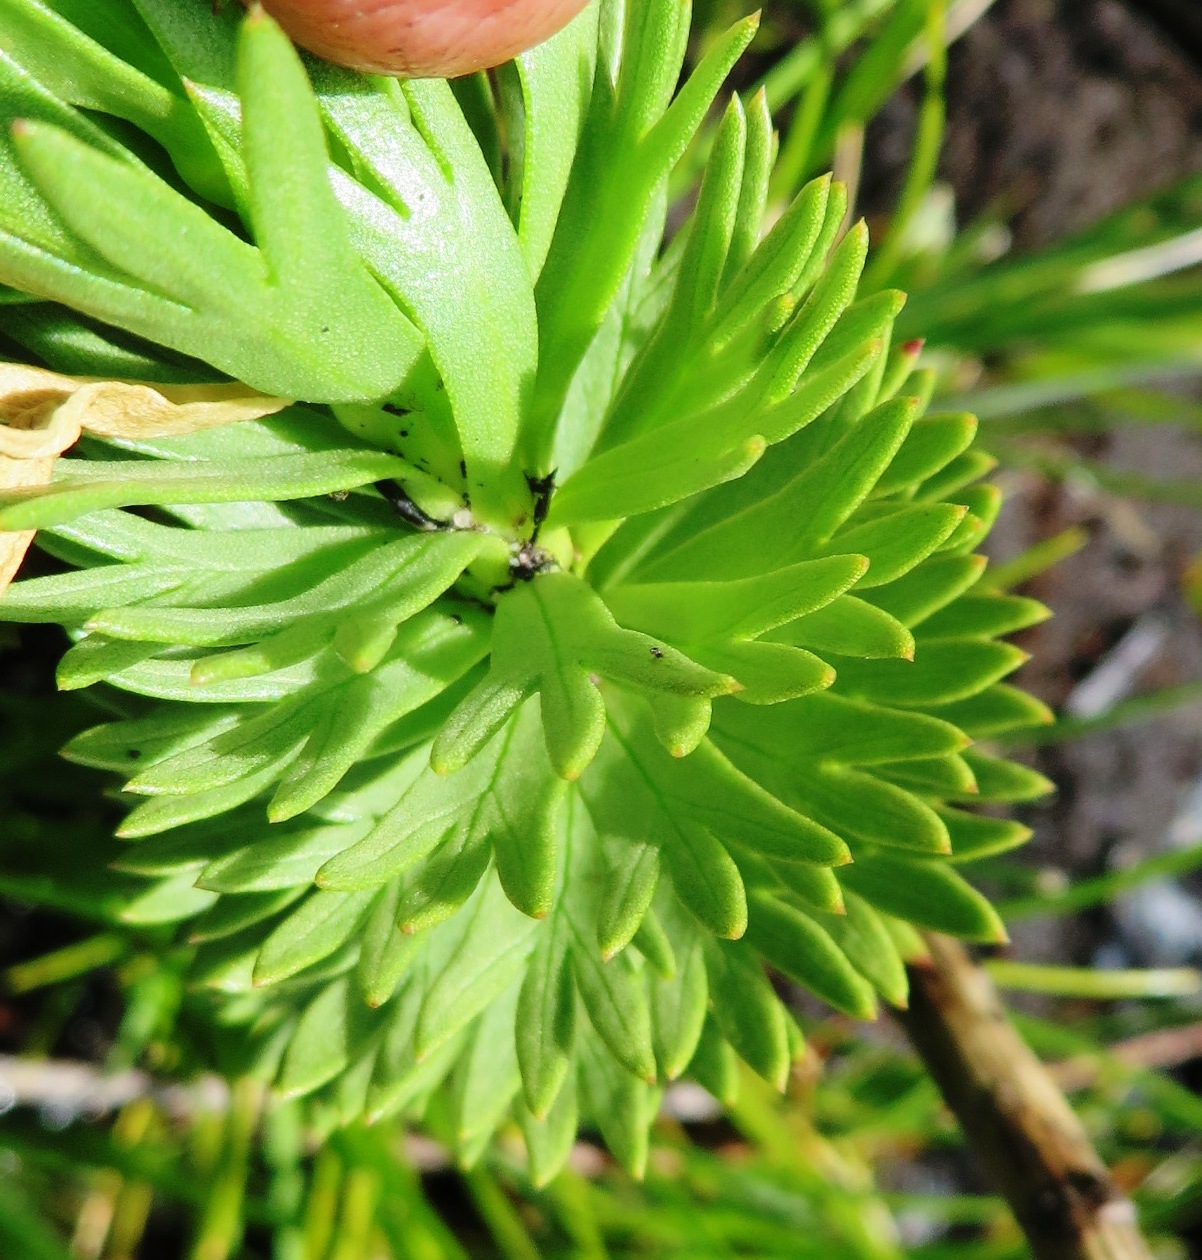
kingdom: Plantae
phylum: Tracheophyta
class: Magnoliopsida
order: Asterales
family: Asteraceae
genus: Ursinia
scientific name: Ursinia caledonica
